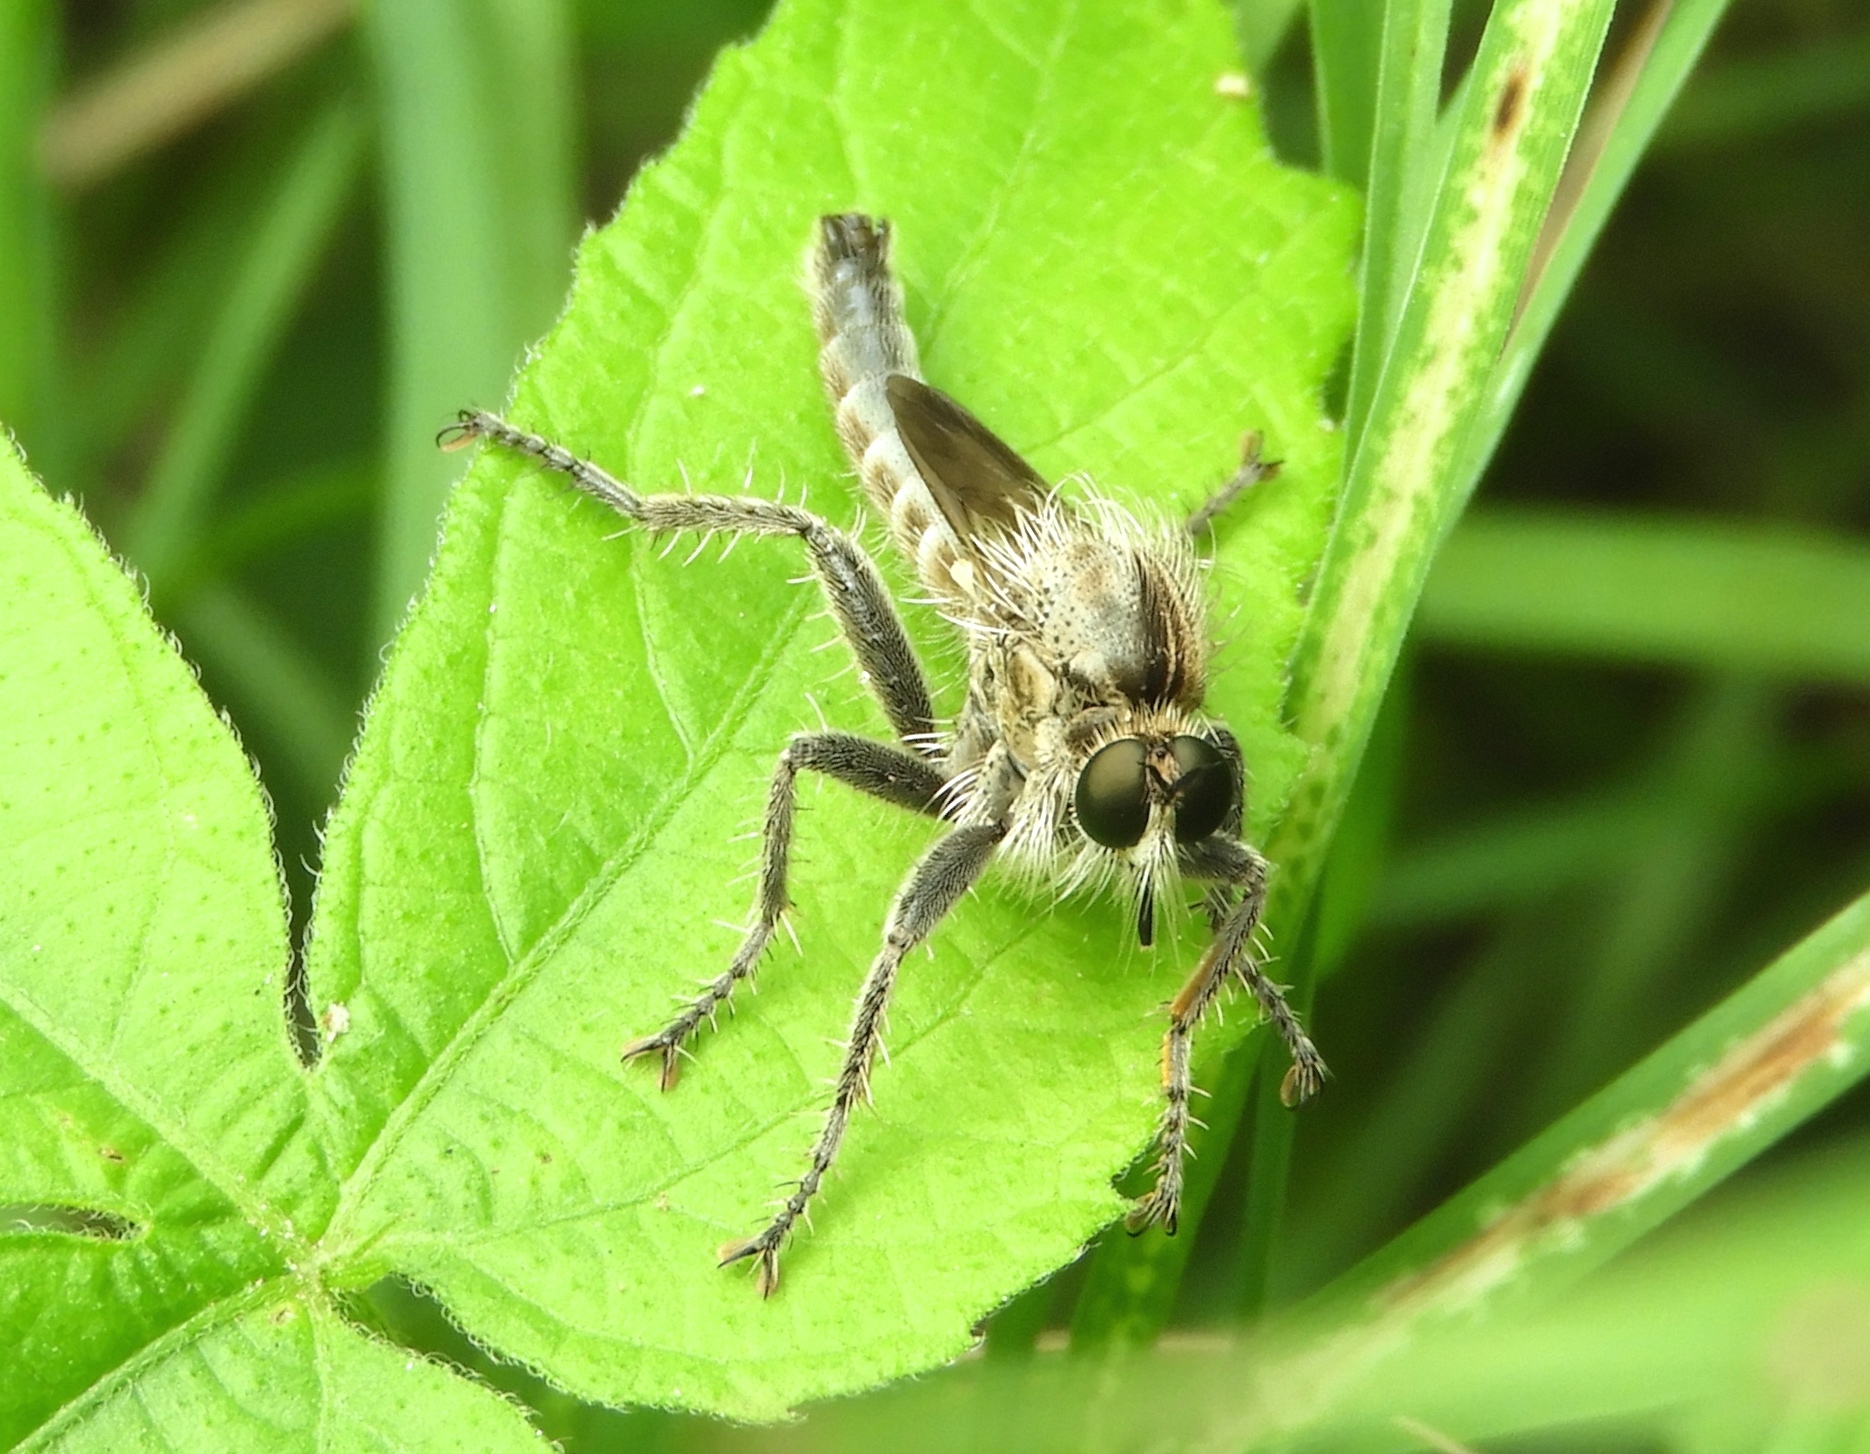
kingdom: Animalia
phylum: Arthropoda
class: Insecta
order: Diptera
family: Asilidae
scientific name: Asilidae
